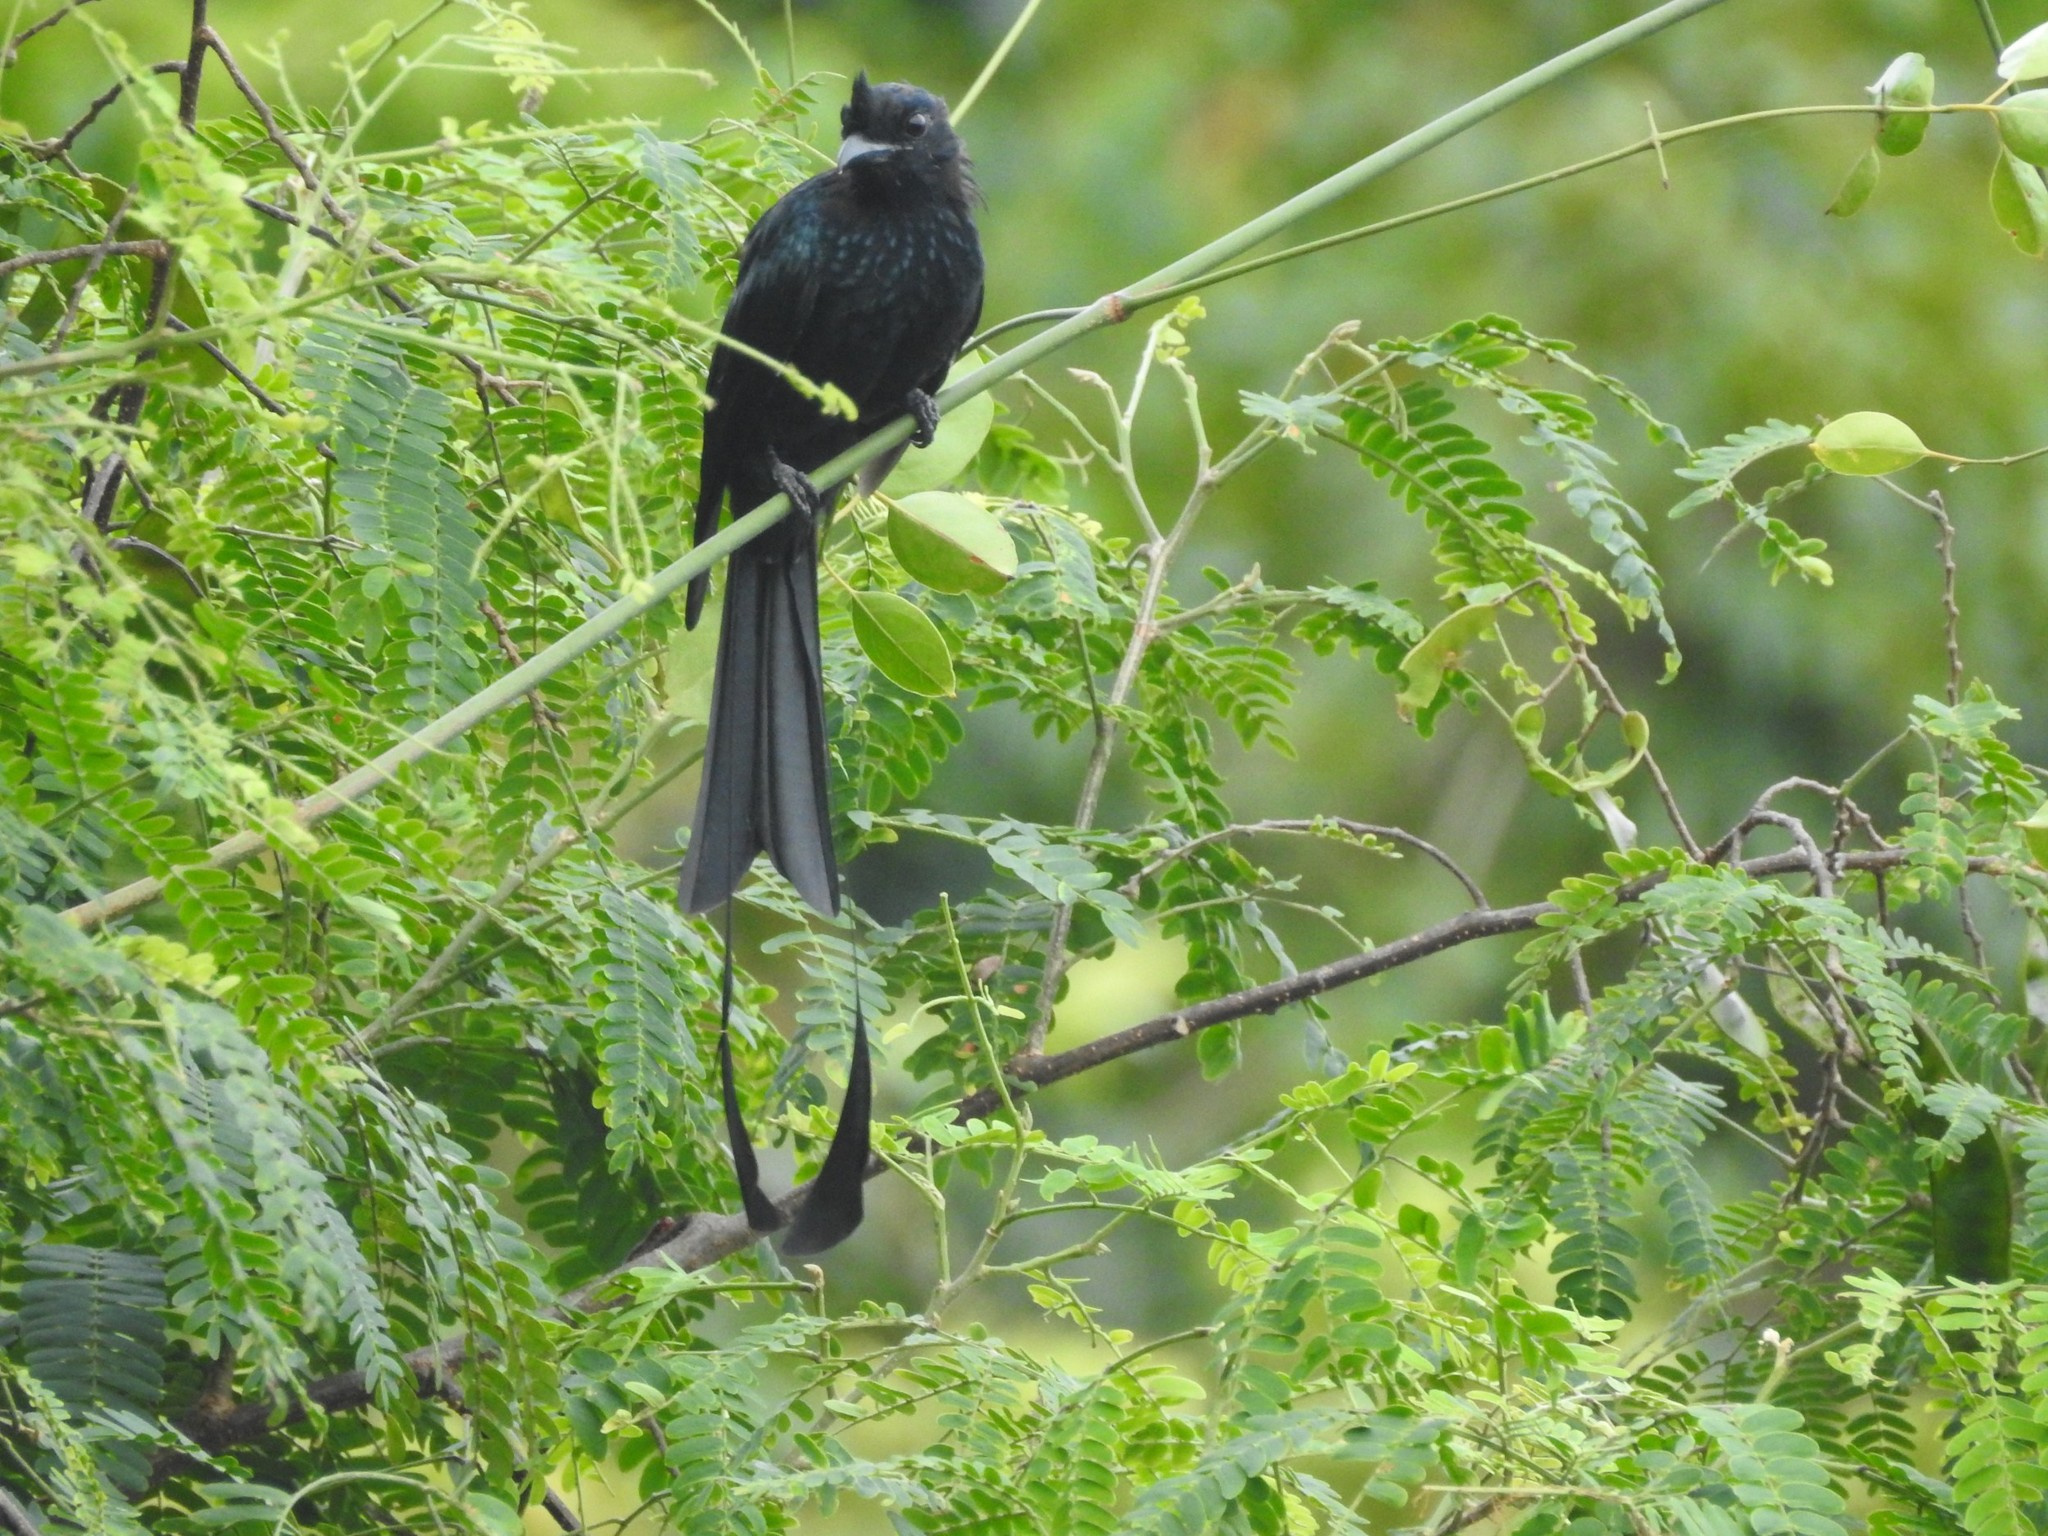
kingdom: Animalia
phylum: Chordata
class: Aves
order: Passeriformes
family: Dicruridae
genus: Dicrurus
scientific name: Dicrurus paradiseus
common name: Greater racket-tailed drongo
